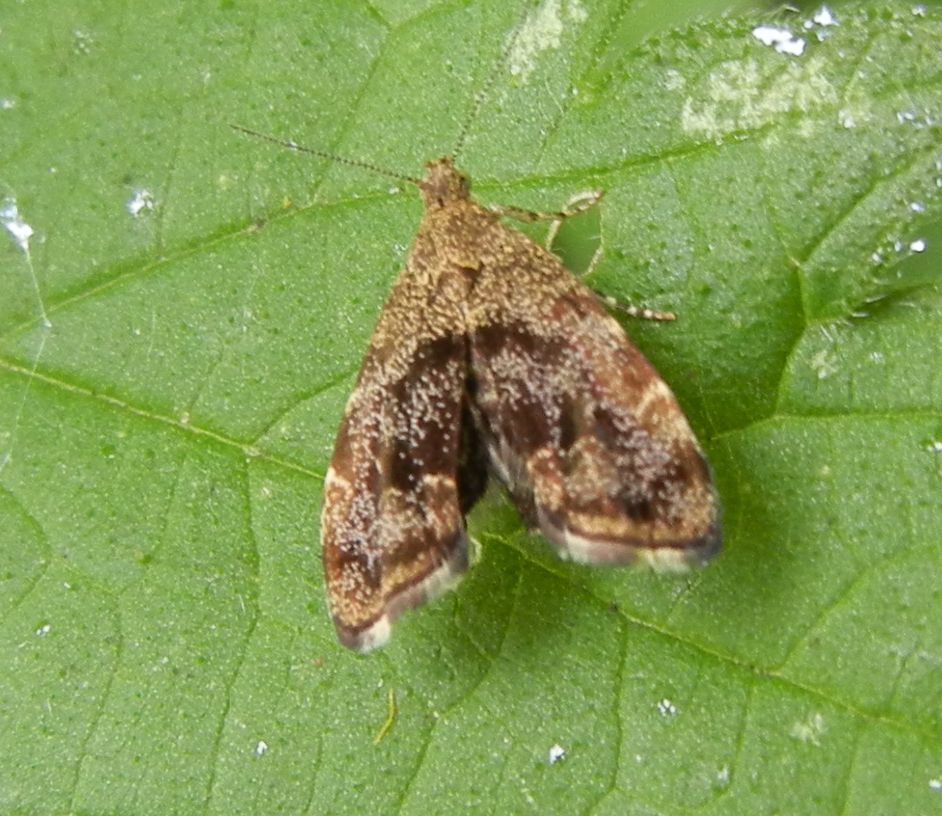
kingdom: Animalia
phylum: Arthropoda
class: Insecta
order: Lepidoptera
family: Choreutidae
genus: Anthophila
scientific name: Anthophila fabriciana
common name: Nettle-tap
